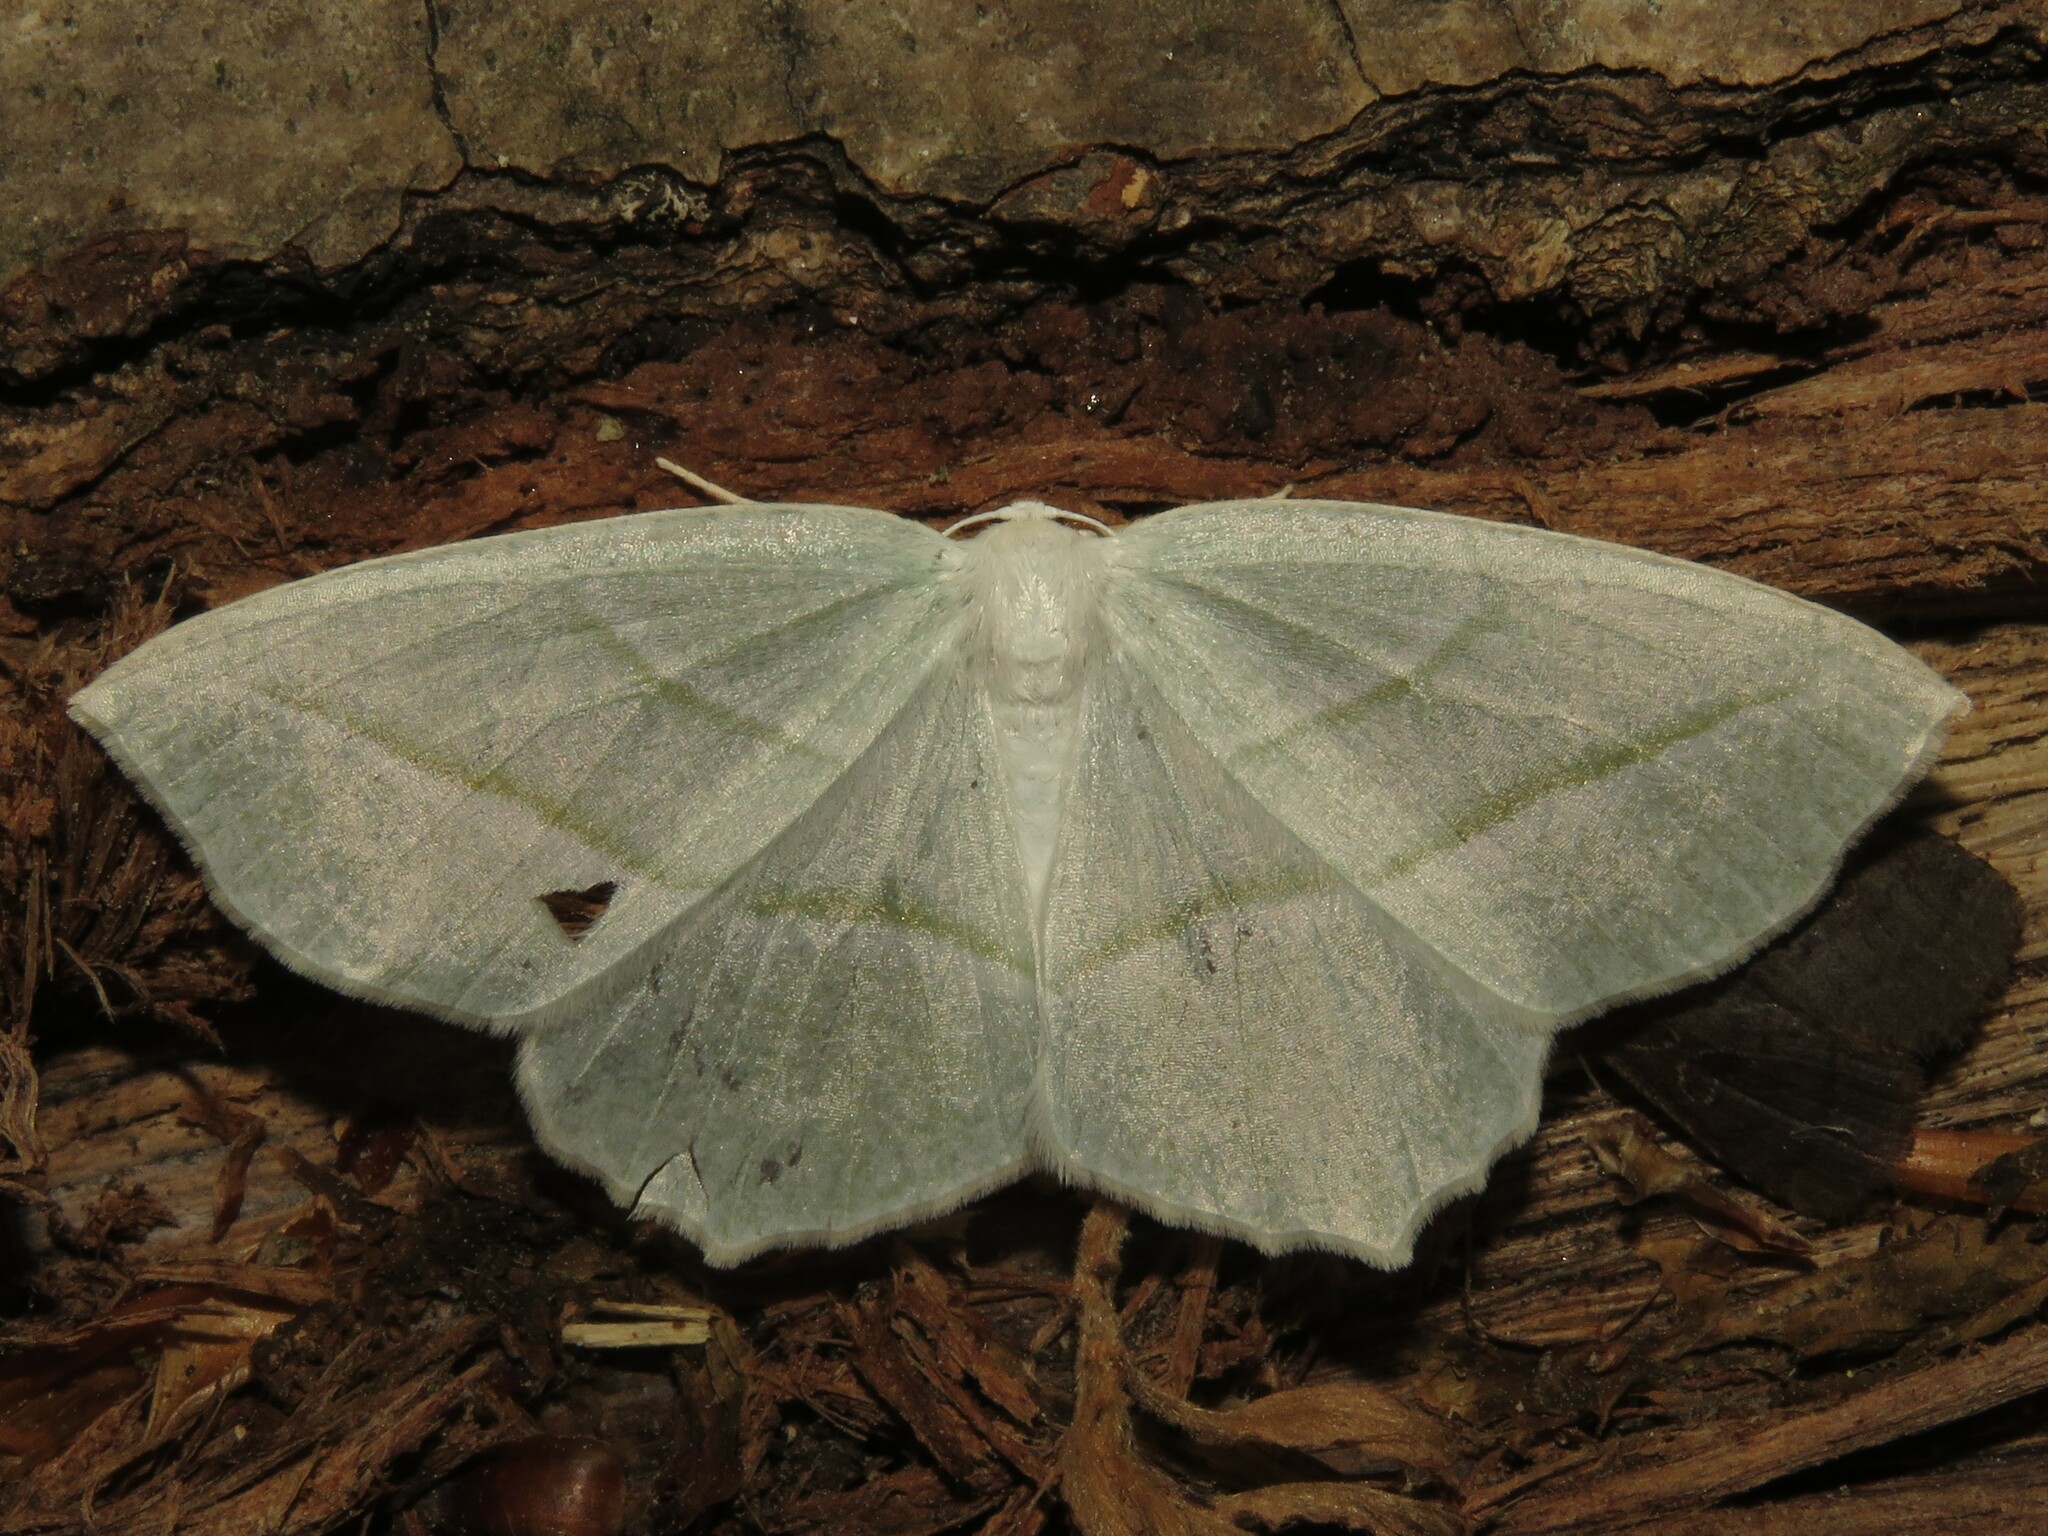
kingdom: Animalia
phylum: Arthropoda
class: Insecta
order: Lepidoptera
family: Geometridae
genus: Campaea
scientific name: Campaea perlata
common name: Fringed looper
